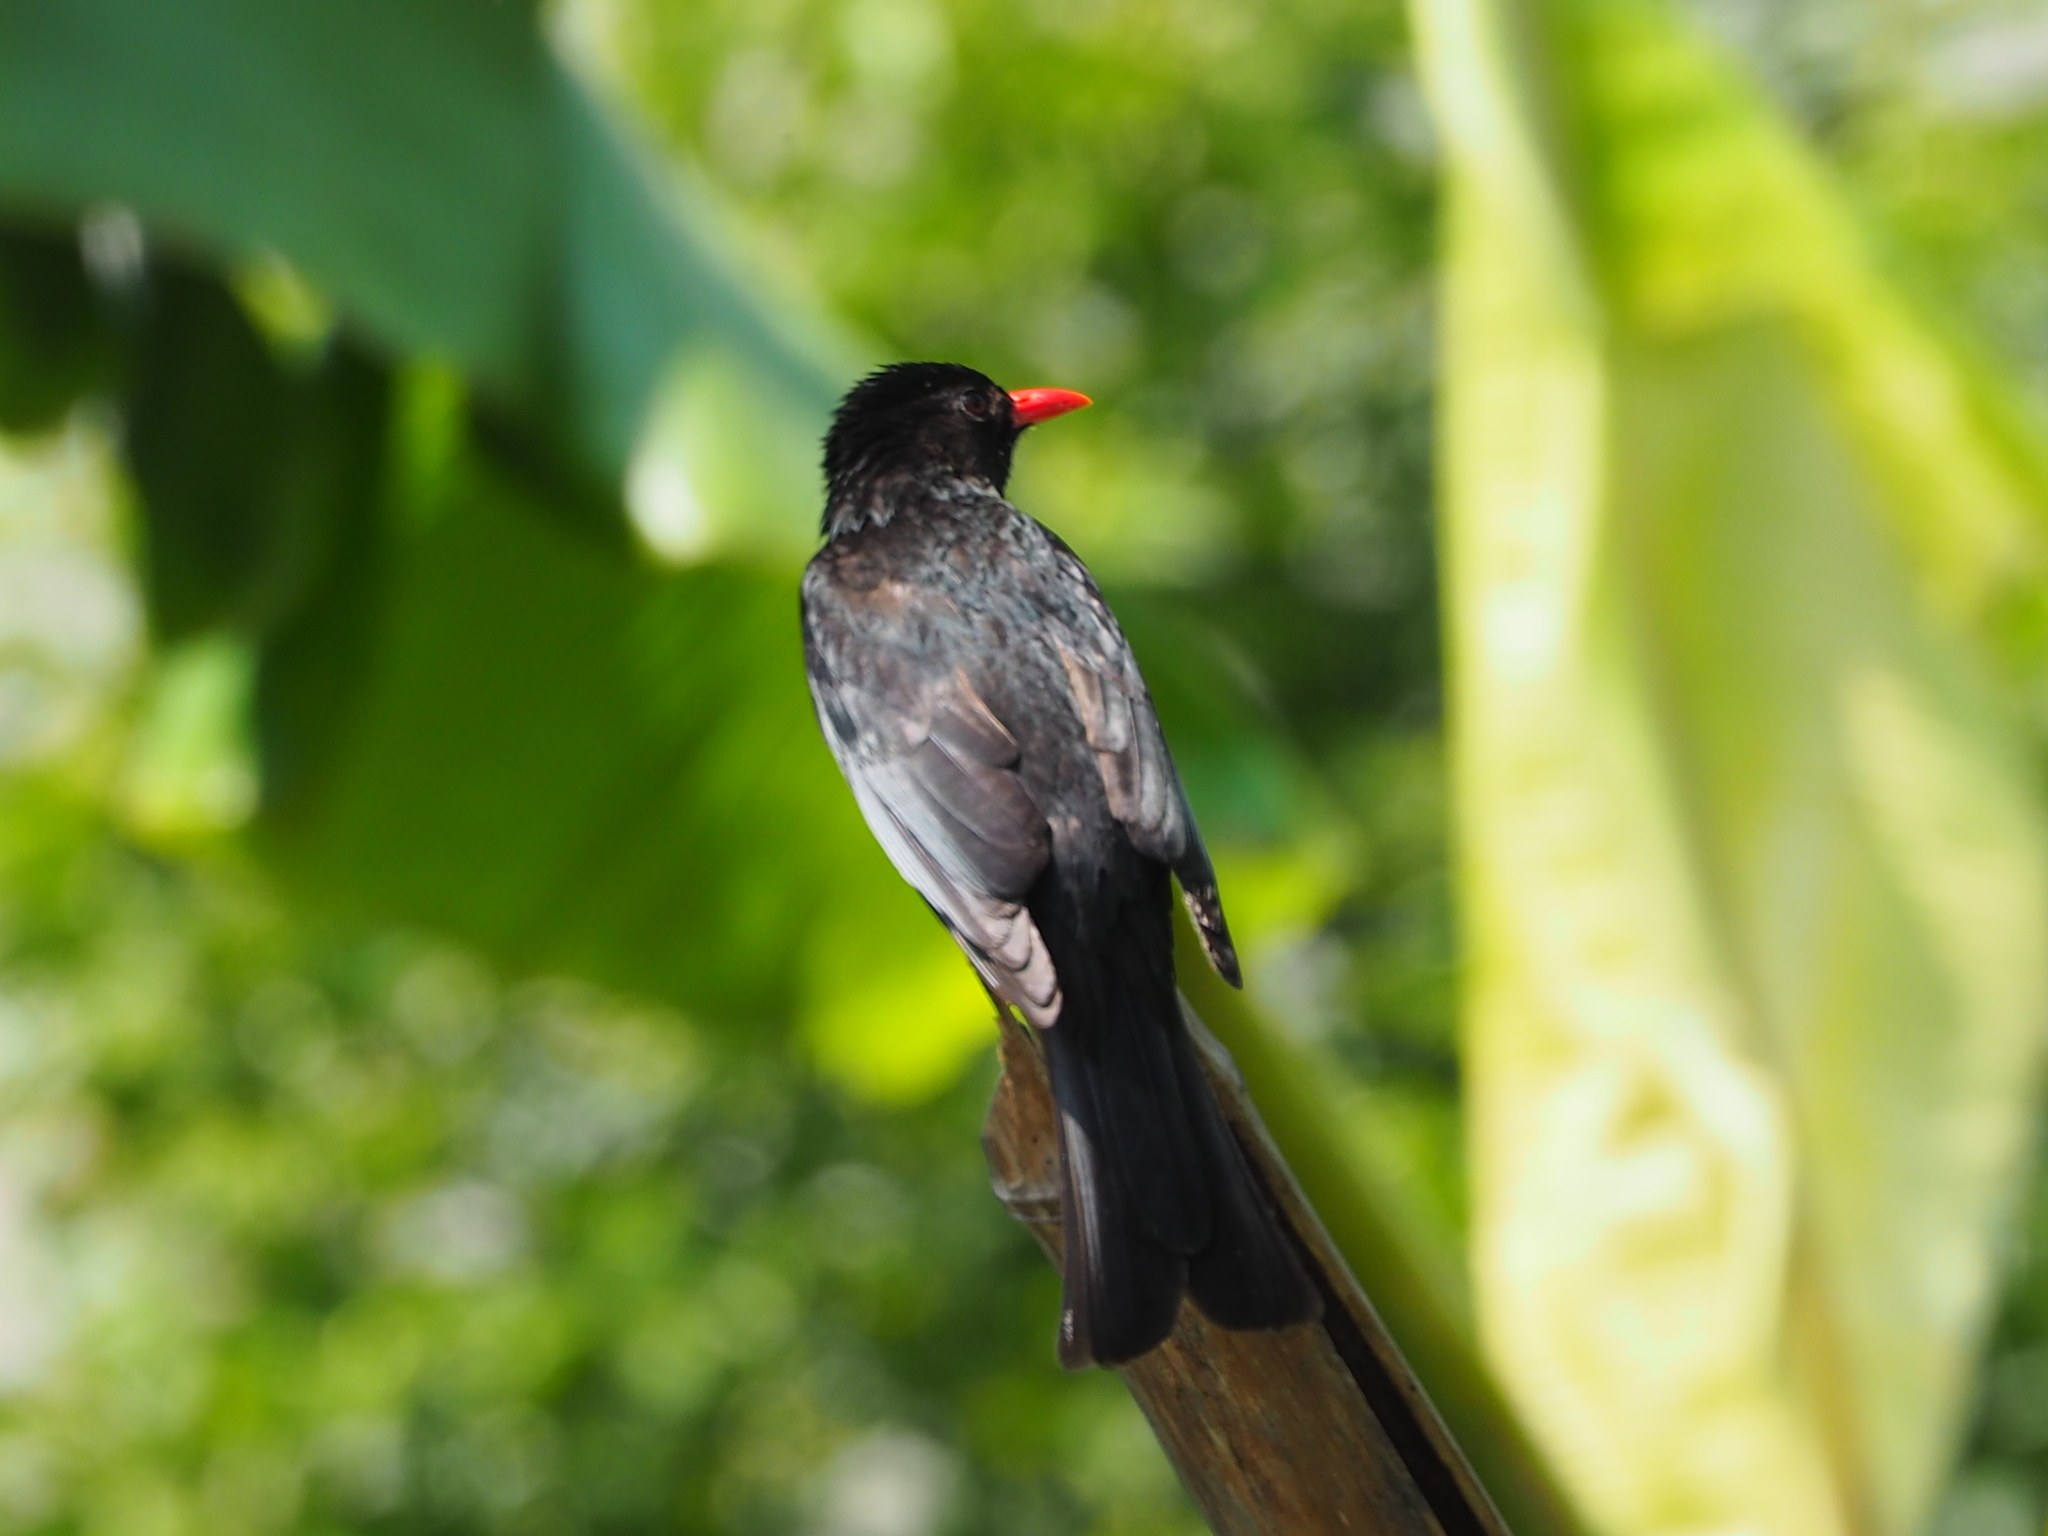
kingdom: Animalia
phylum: Chordata
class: Aves
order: Passeriformes
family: Pycnonotidae
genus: Hypsipetes
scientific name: Hypsipetes leucocephalus
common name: Black bulbul
